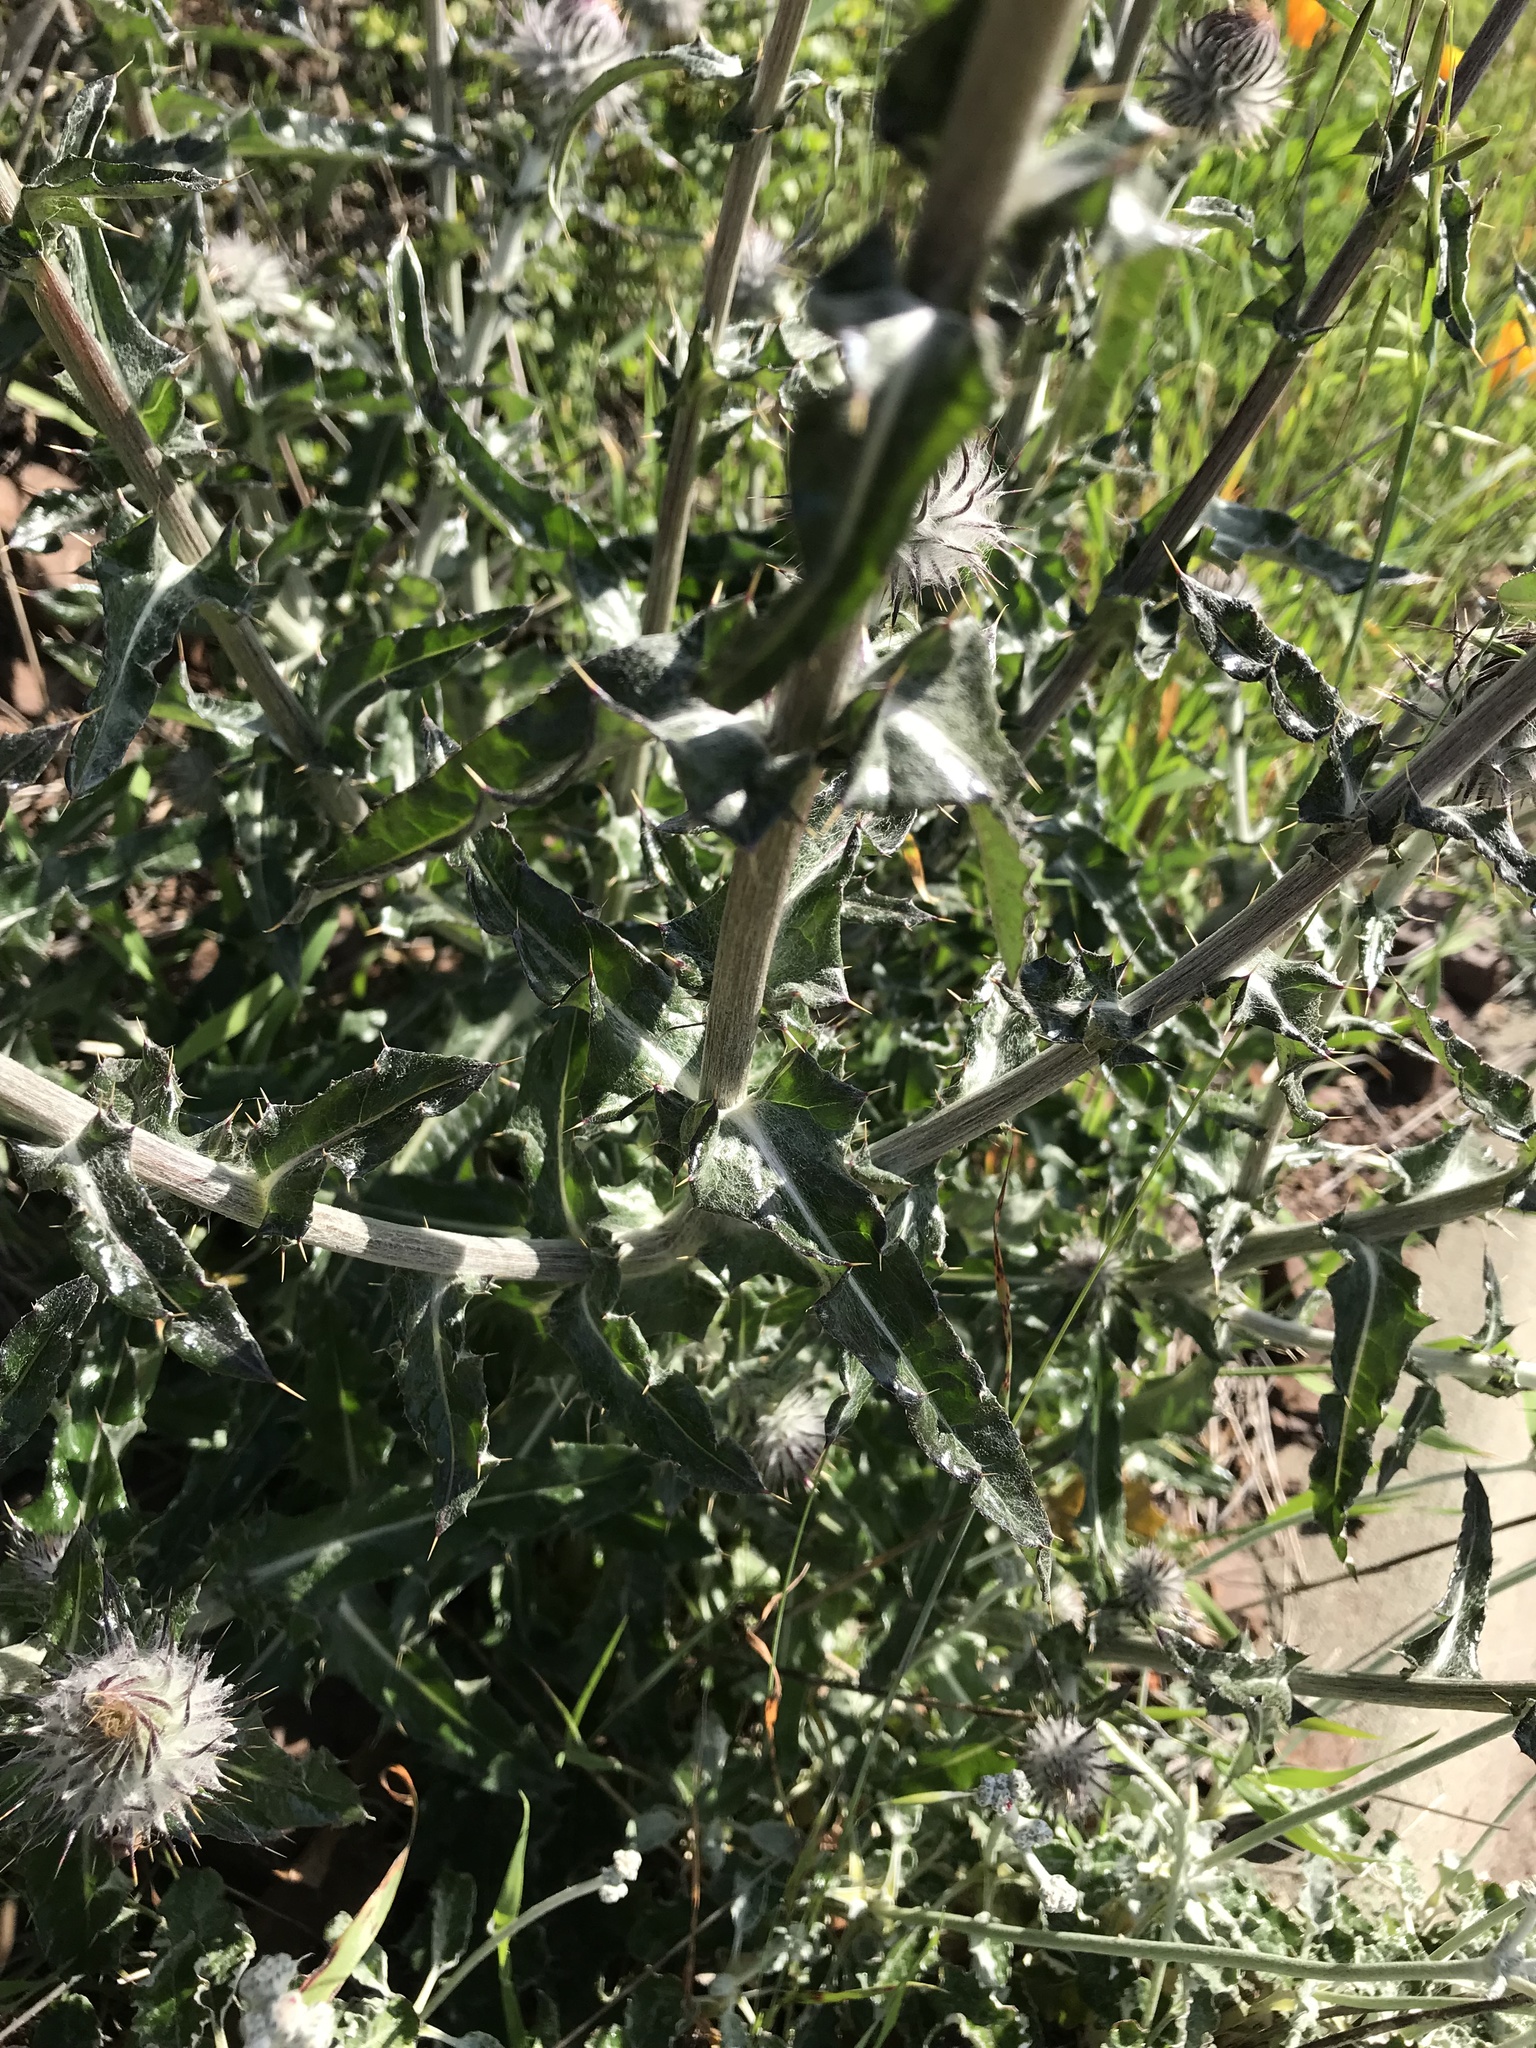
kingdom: Plantae
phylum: Tracheophyta
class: Magnoliopsida
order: Asterales
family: Asteraceae
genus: Cirsium
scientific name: Cirsium occidentale
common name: Western thistle
